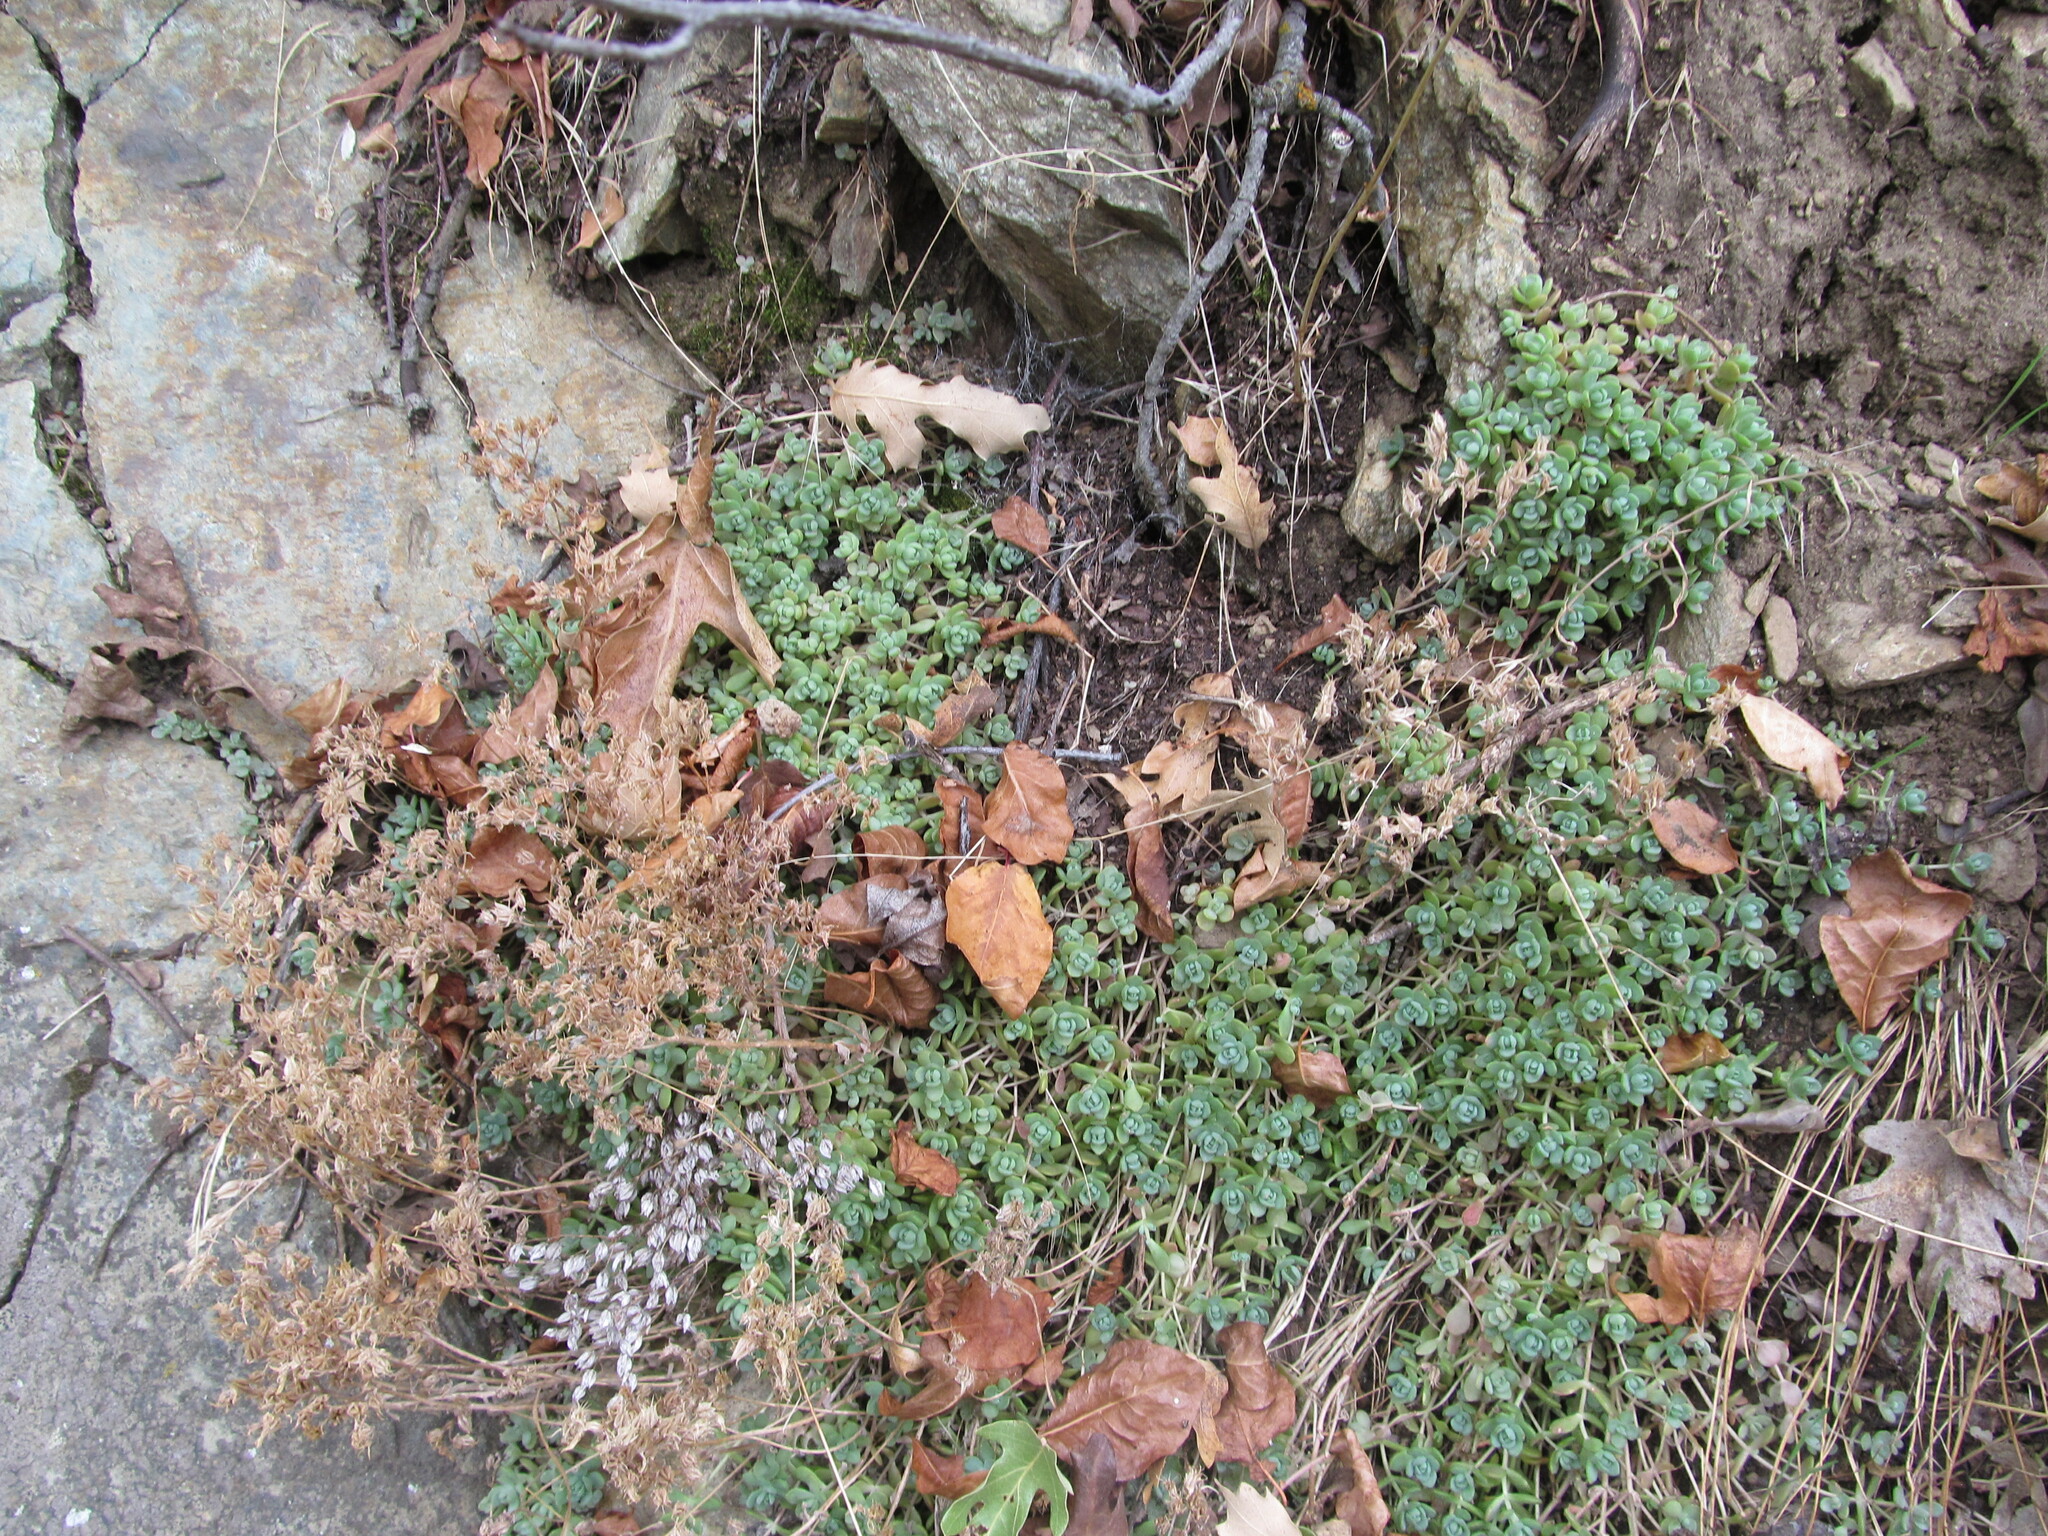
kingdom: Plantae
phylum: Tracheophyta
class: Magnoliopsida
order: Saxifragales
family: Crassulaceae
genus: Sedum
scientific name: Sedum debile
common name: Weak-stem stonecrop
